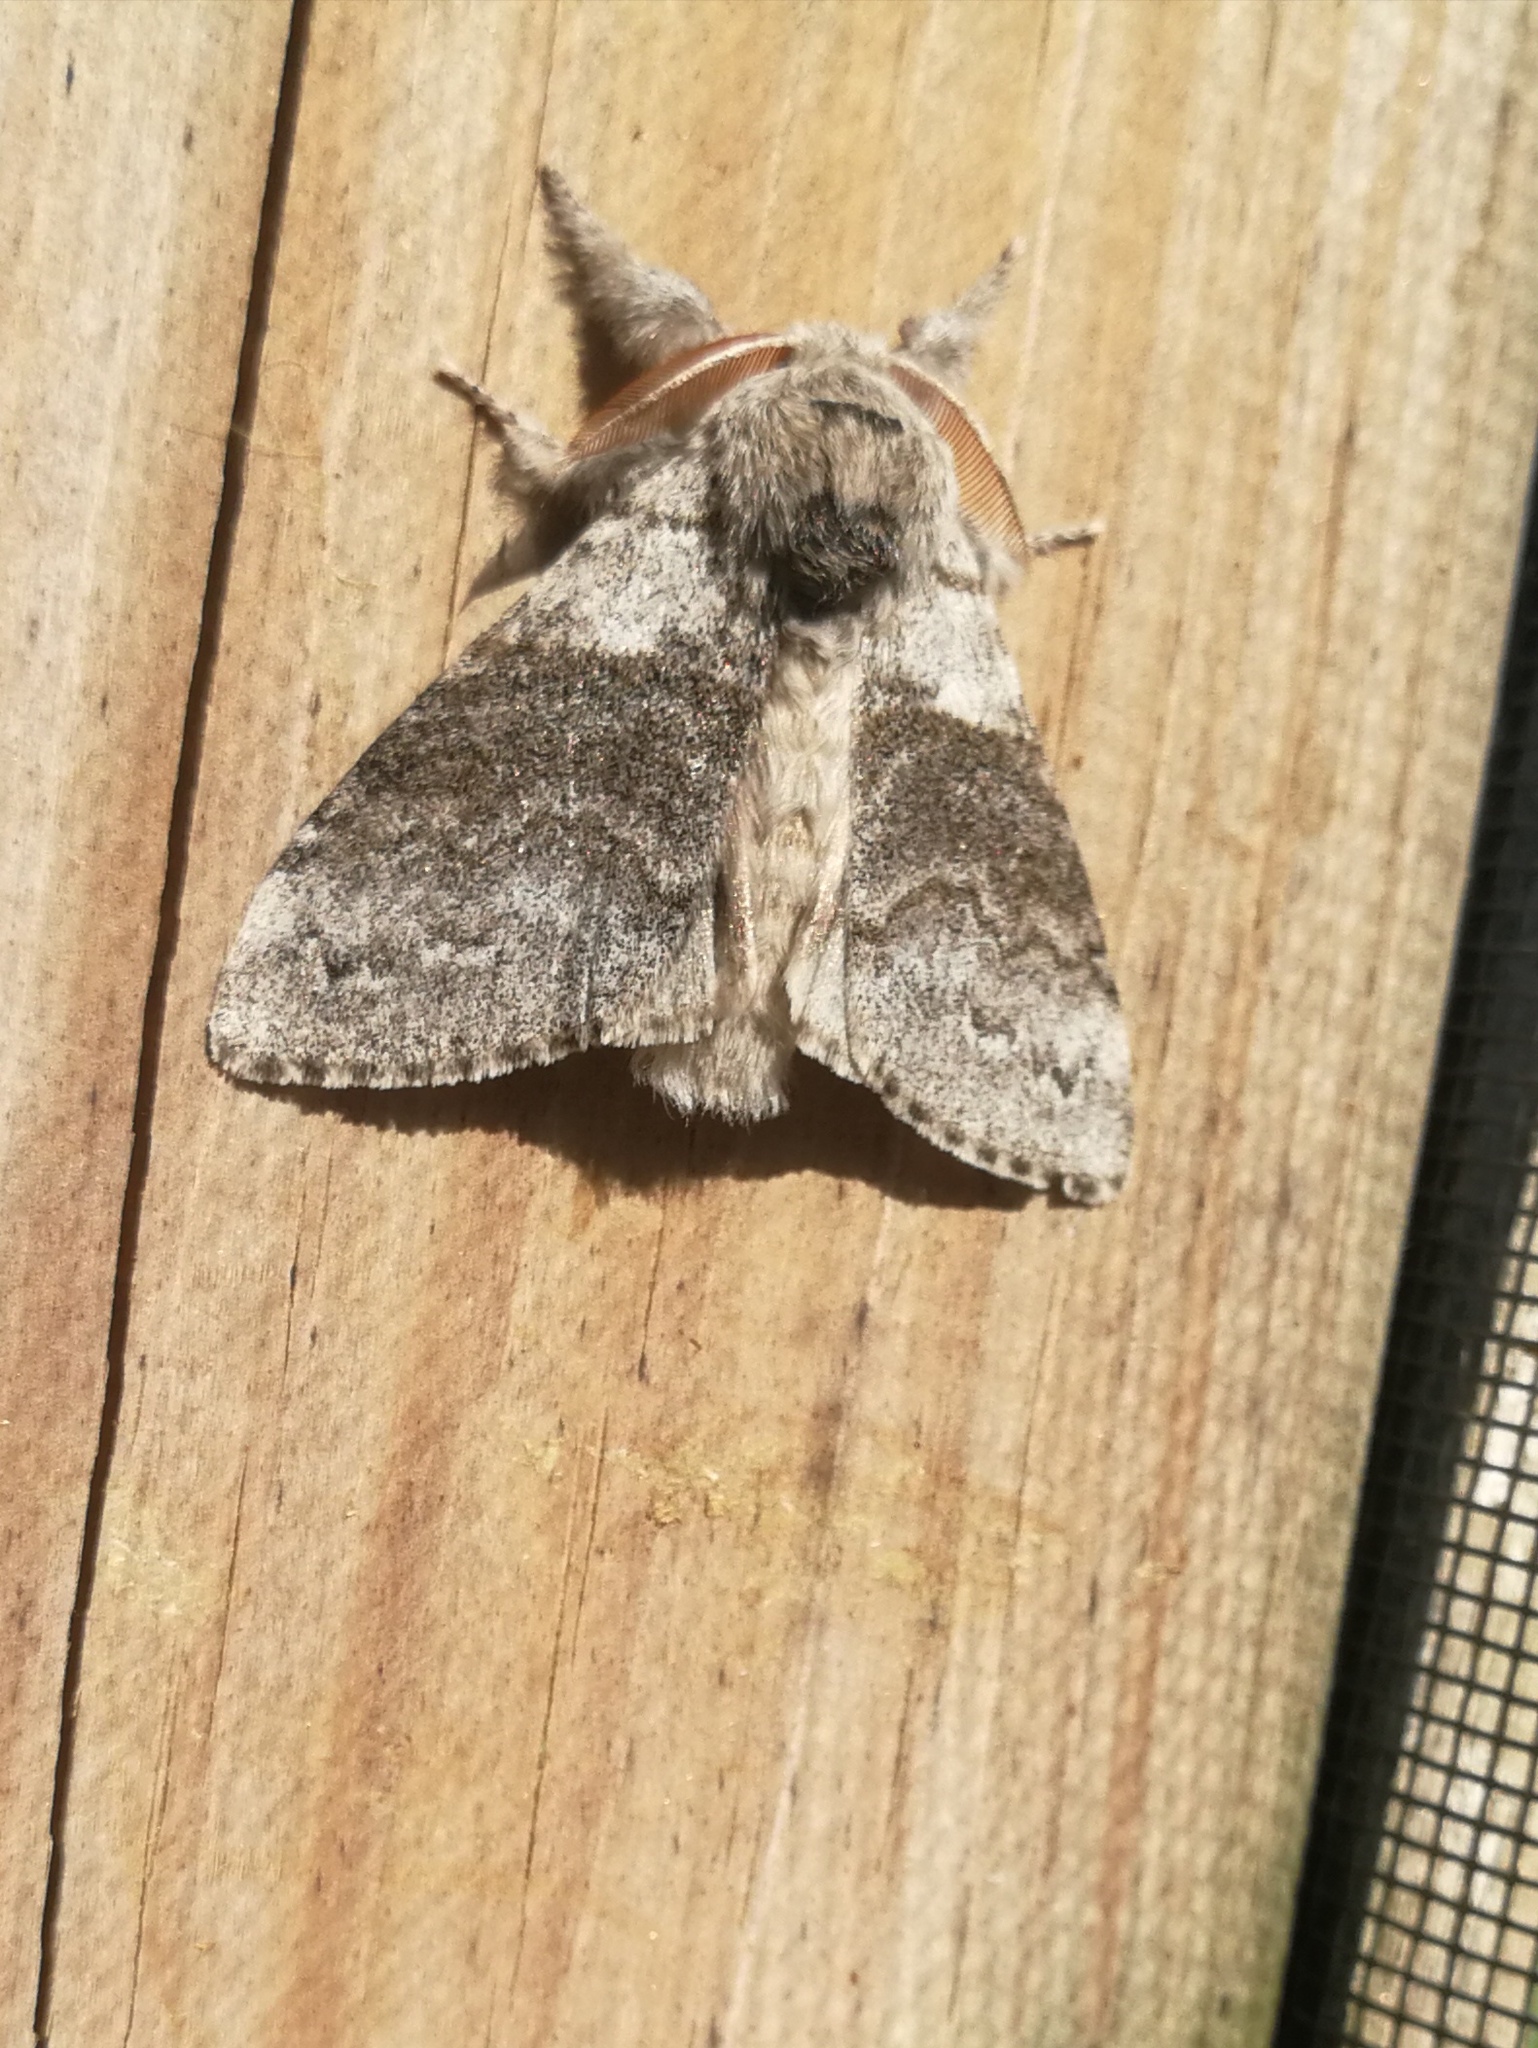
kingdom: Animalia
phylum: Arthropoda
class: Insecta
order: Lepidoptera
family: Erebidae
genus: Calliteara
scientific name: Calliteara pudibunda
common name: Pale tussock
